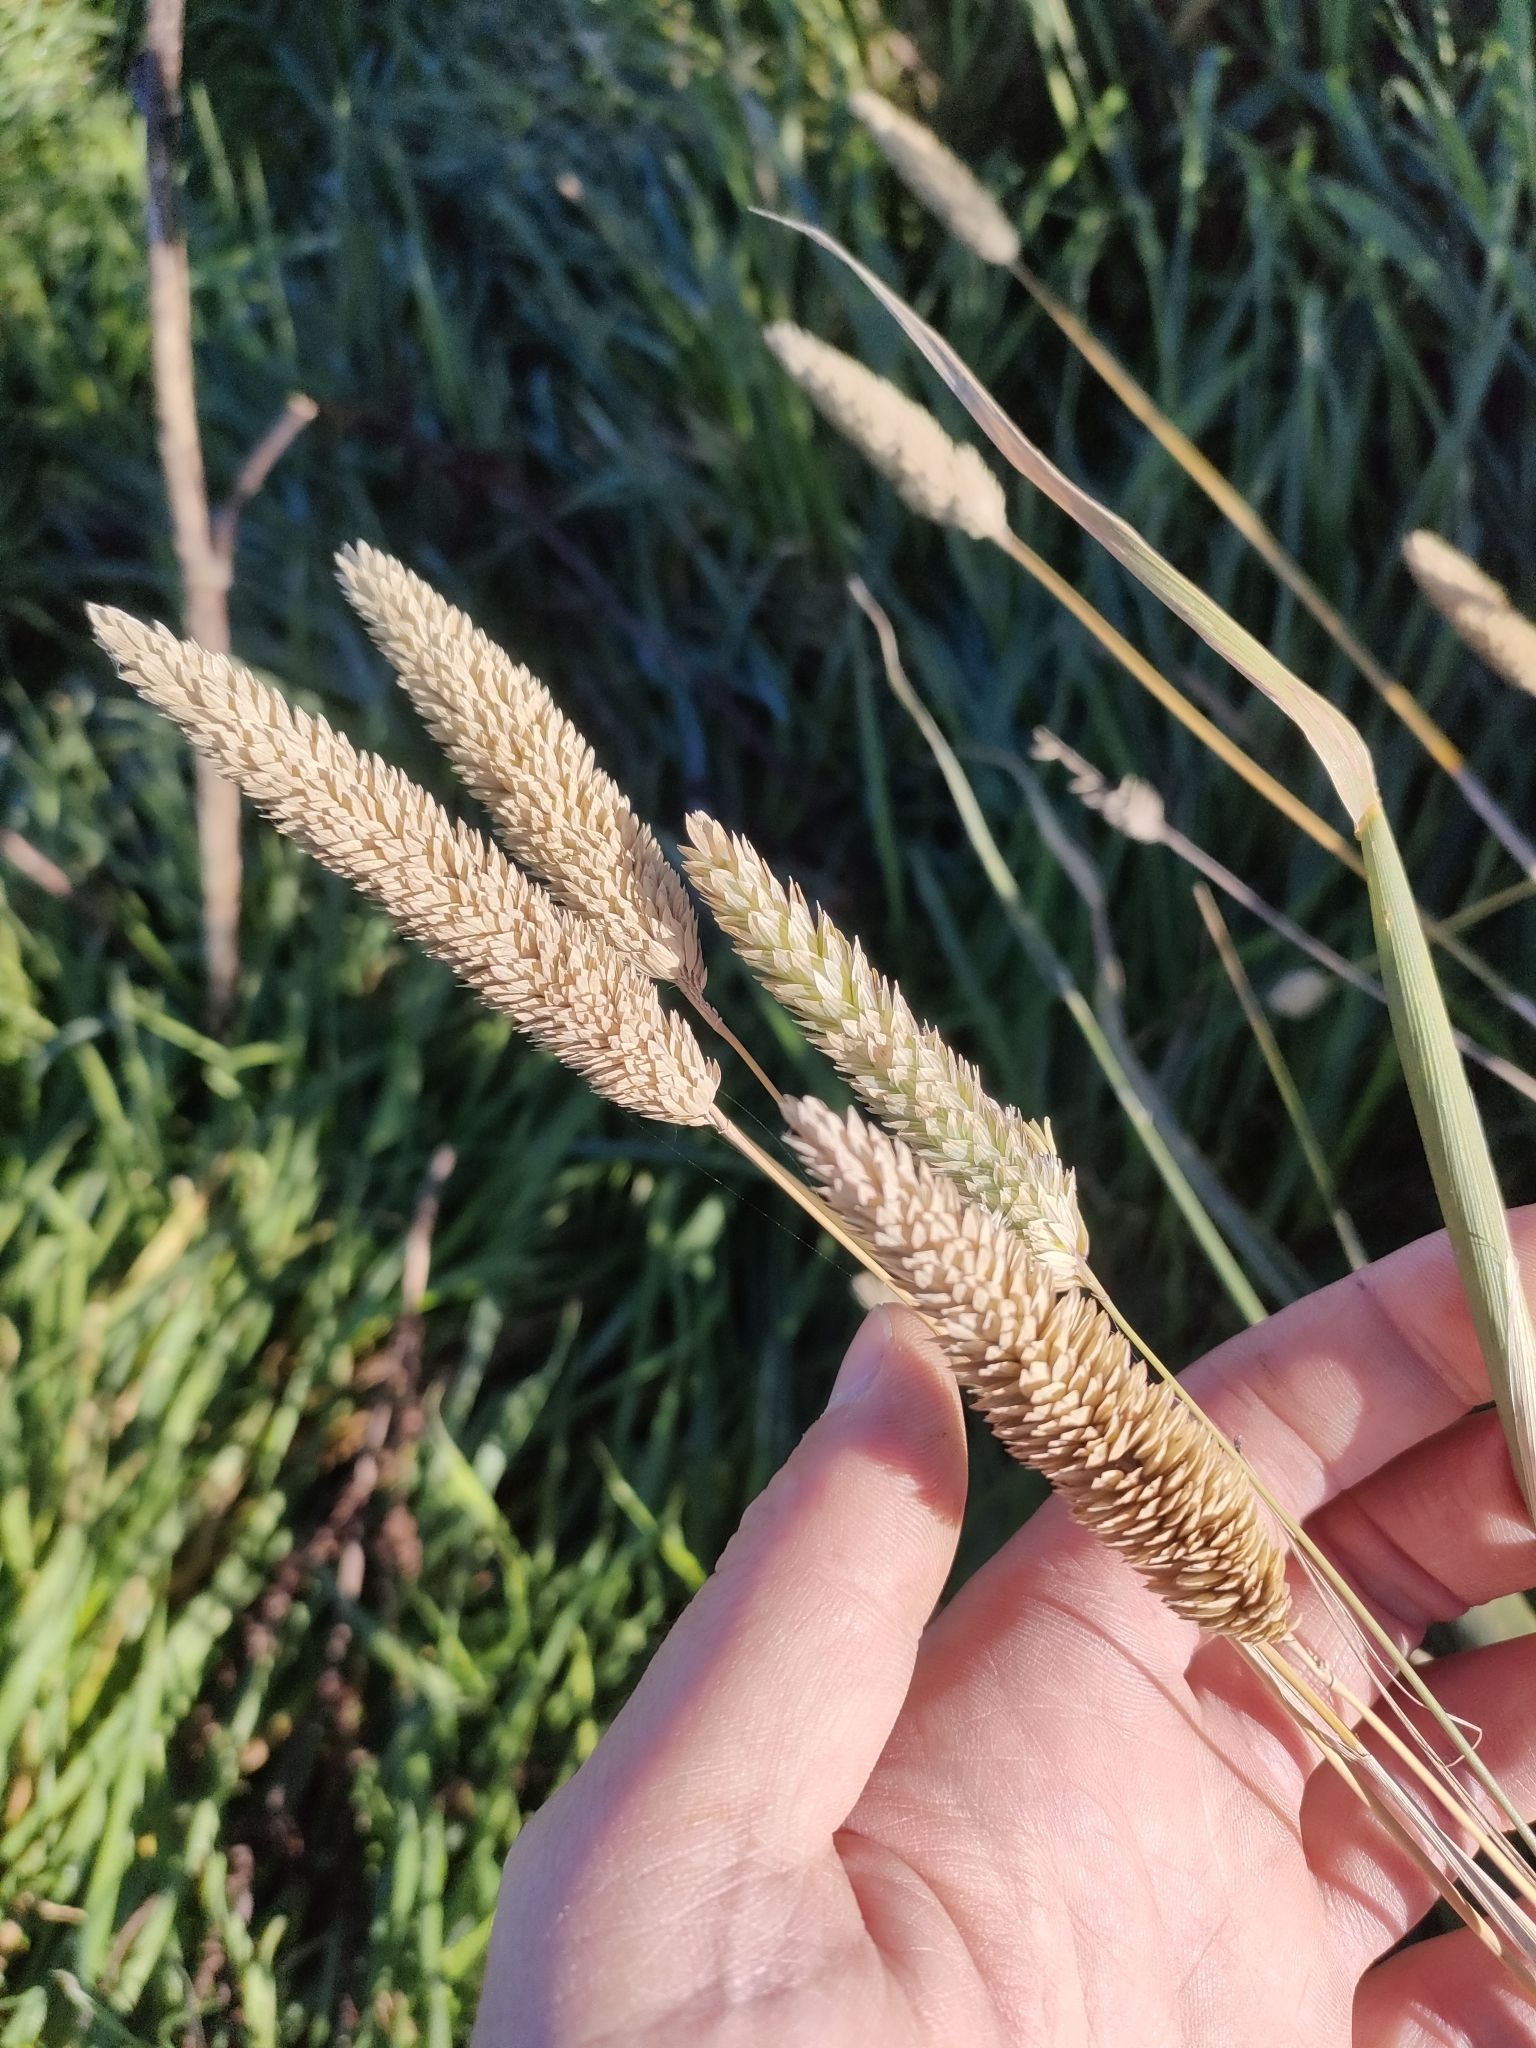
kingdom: Plantae
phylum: Tracheophyta
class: Liliopsida
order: Poales
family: Poaceae
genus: Phalaris
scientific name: Phalaris aquatica
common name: Bulbous canary-grass
